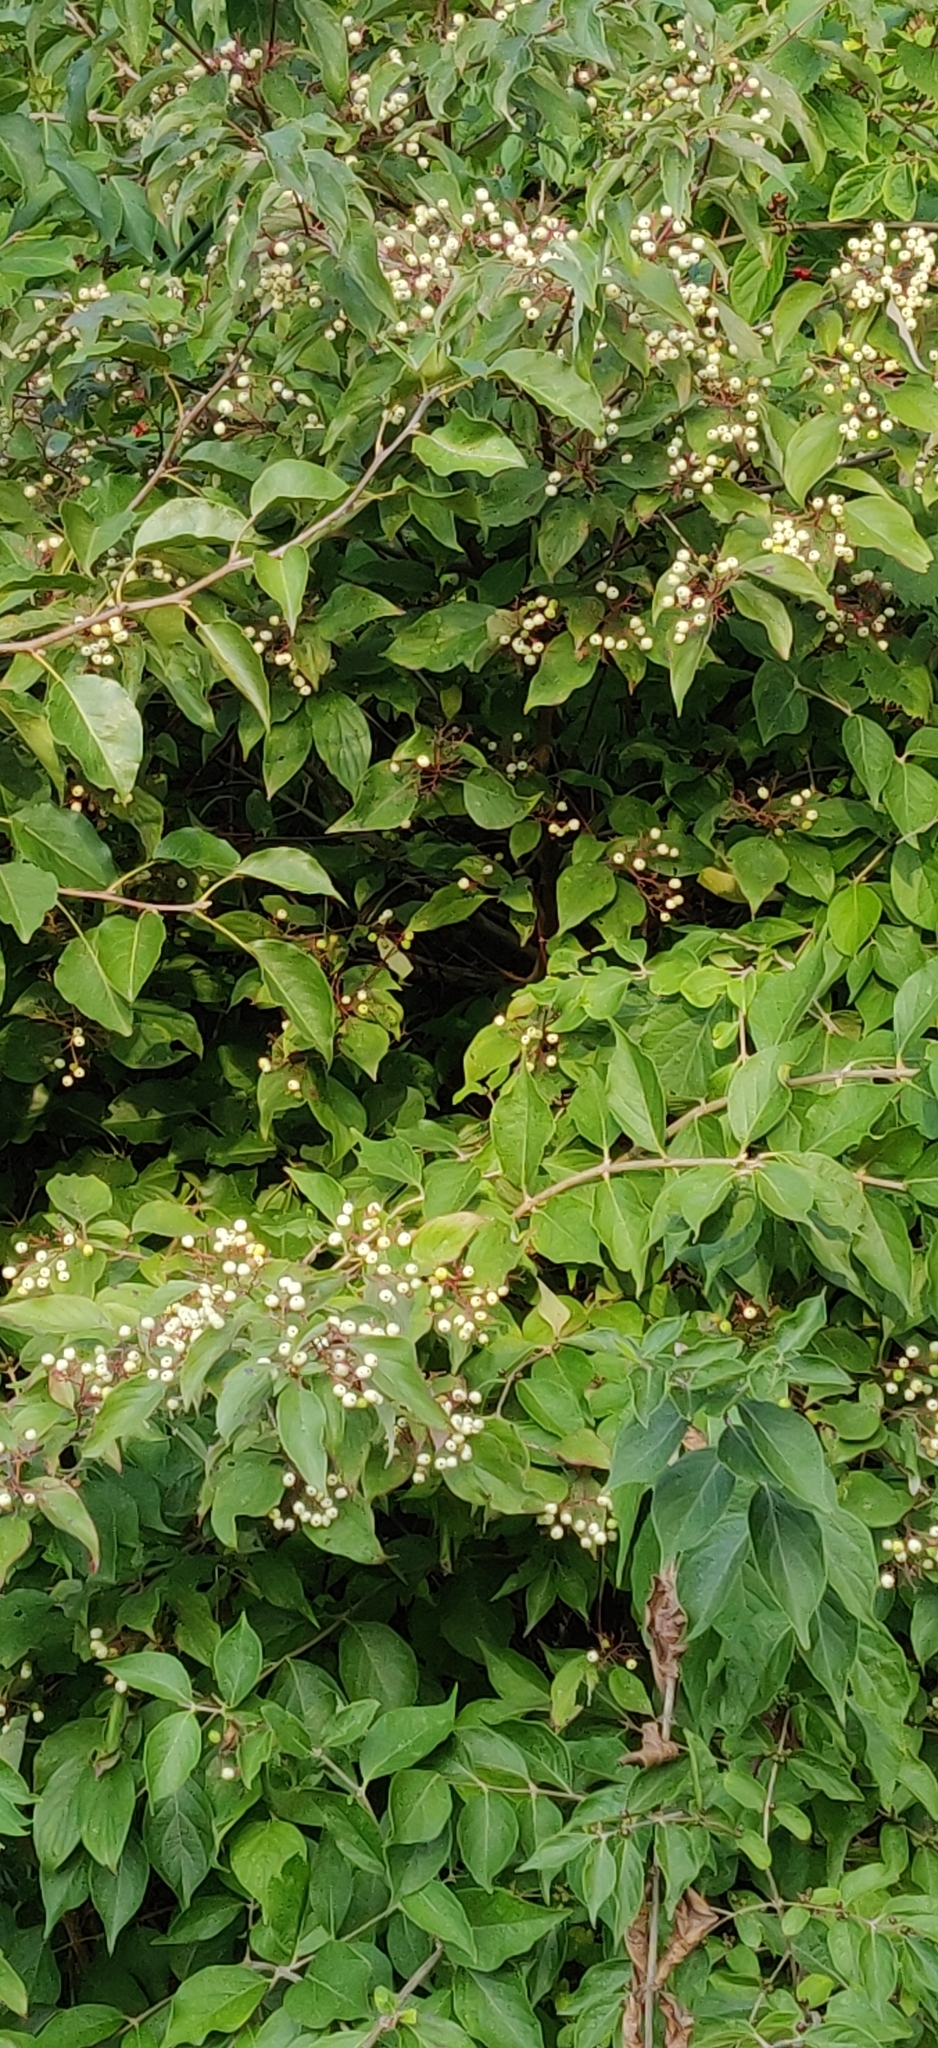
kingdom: Plantae
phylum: Tracheophyta
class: Magnoliopsida
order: Cornales
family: Cornaceae
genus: Cornus
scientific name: Cornus racemosa
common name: Panicled dogwood
